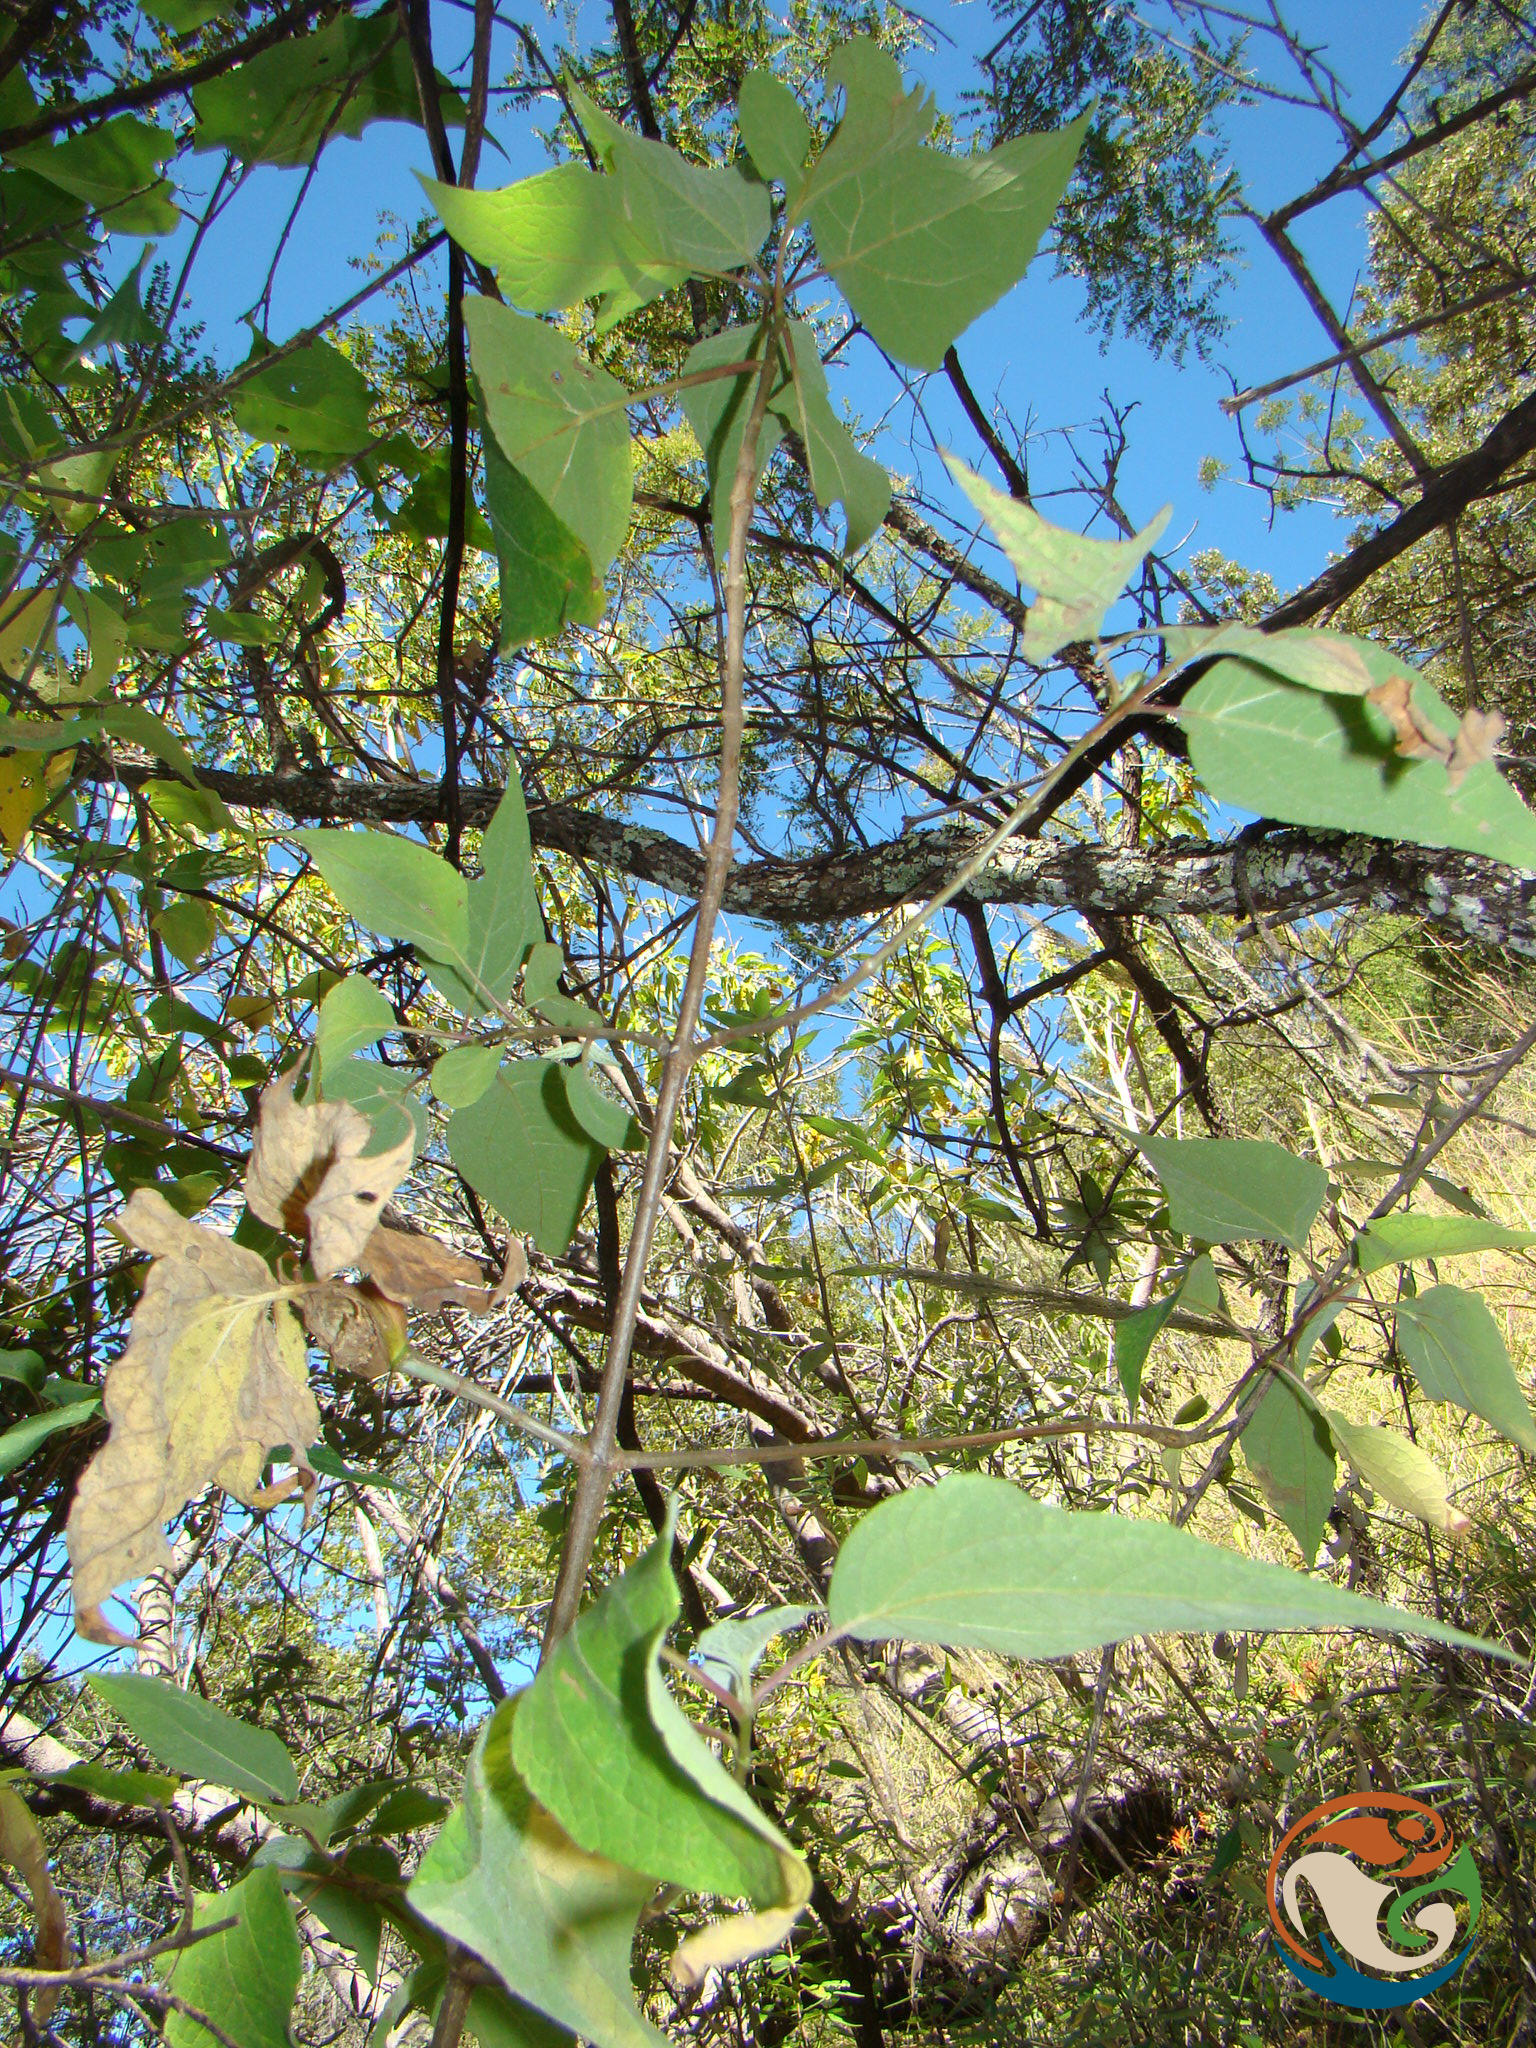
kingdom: Plantae
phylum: Tracheophyta
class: Magnoliopsida
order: Asterales
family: Asteraceae
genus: Montanoa
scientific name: Montanoa leucantha
